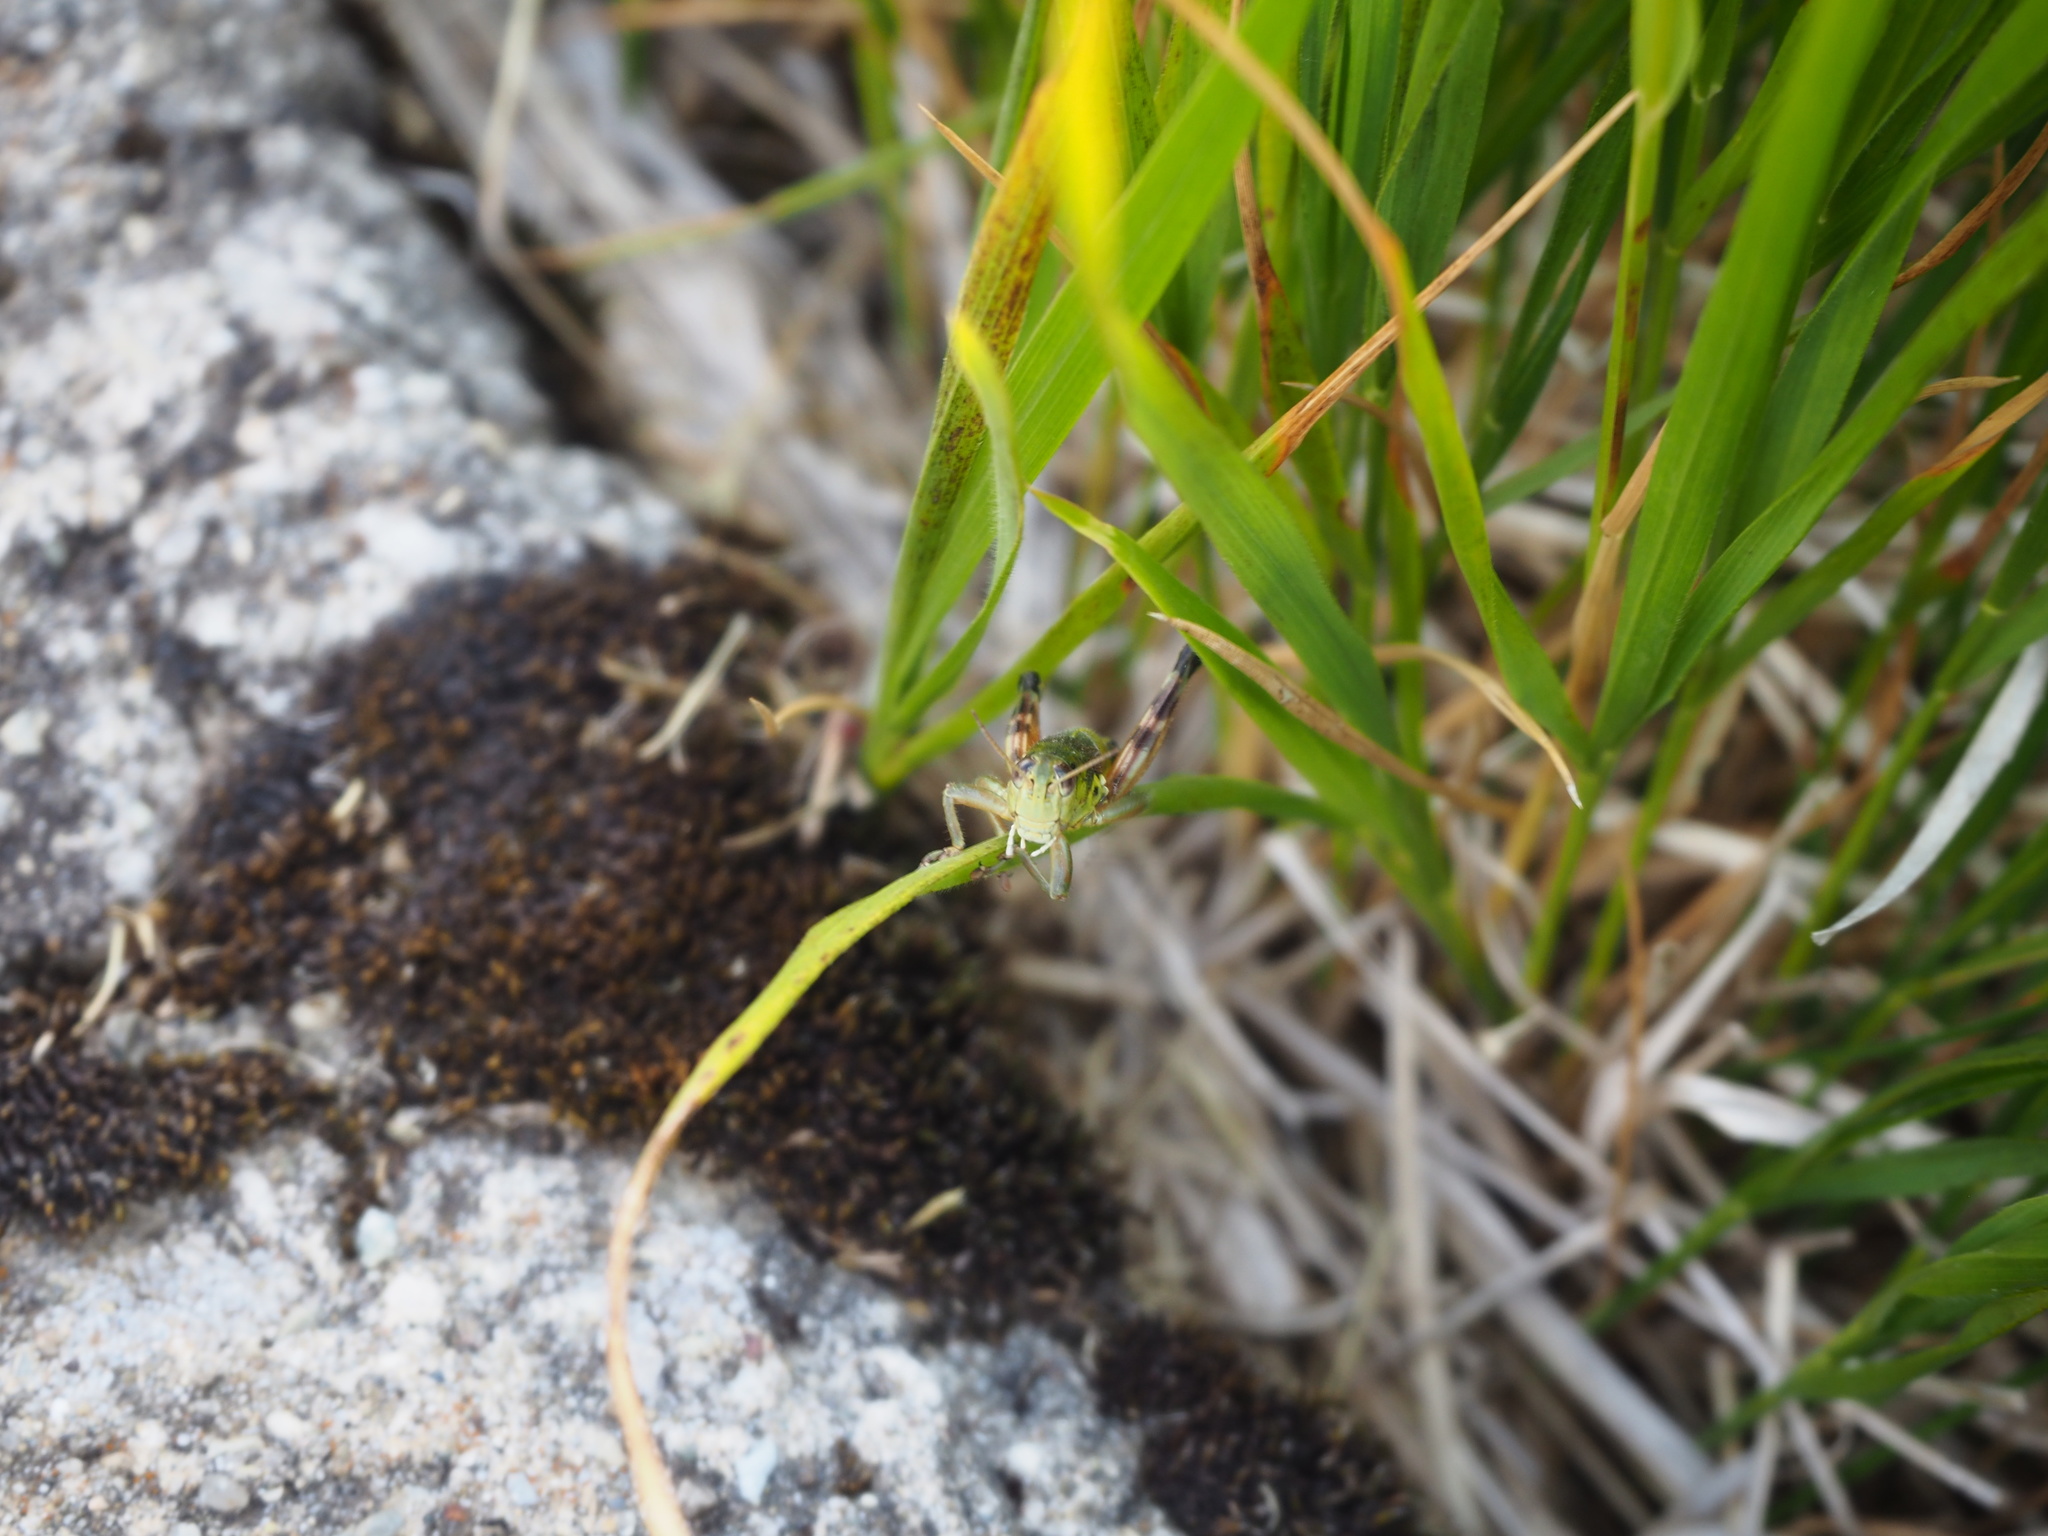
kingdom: Animalia
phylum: Arthropoda
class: Insecta
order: Orthoptera
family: Acrididae
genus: Podisma
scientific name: Podisma emiliae
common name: Emilia mountain grasshopper
